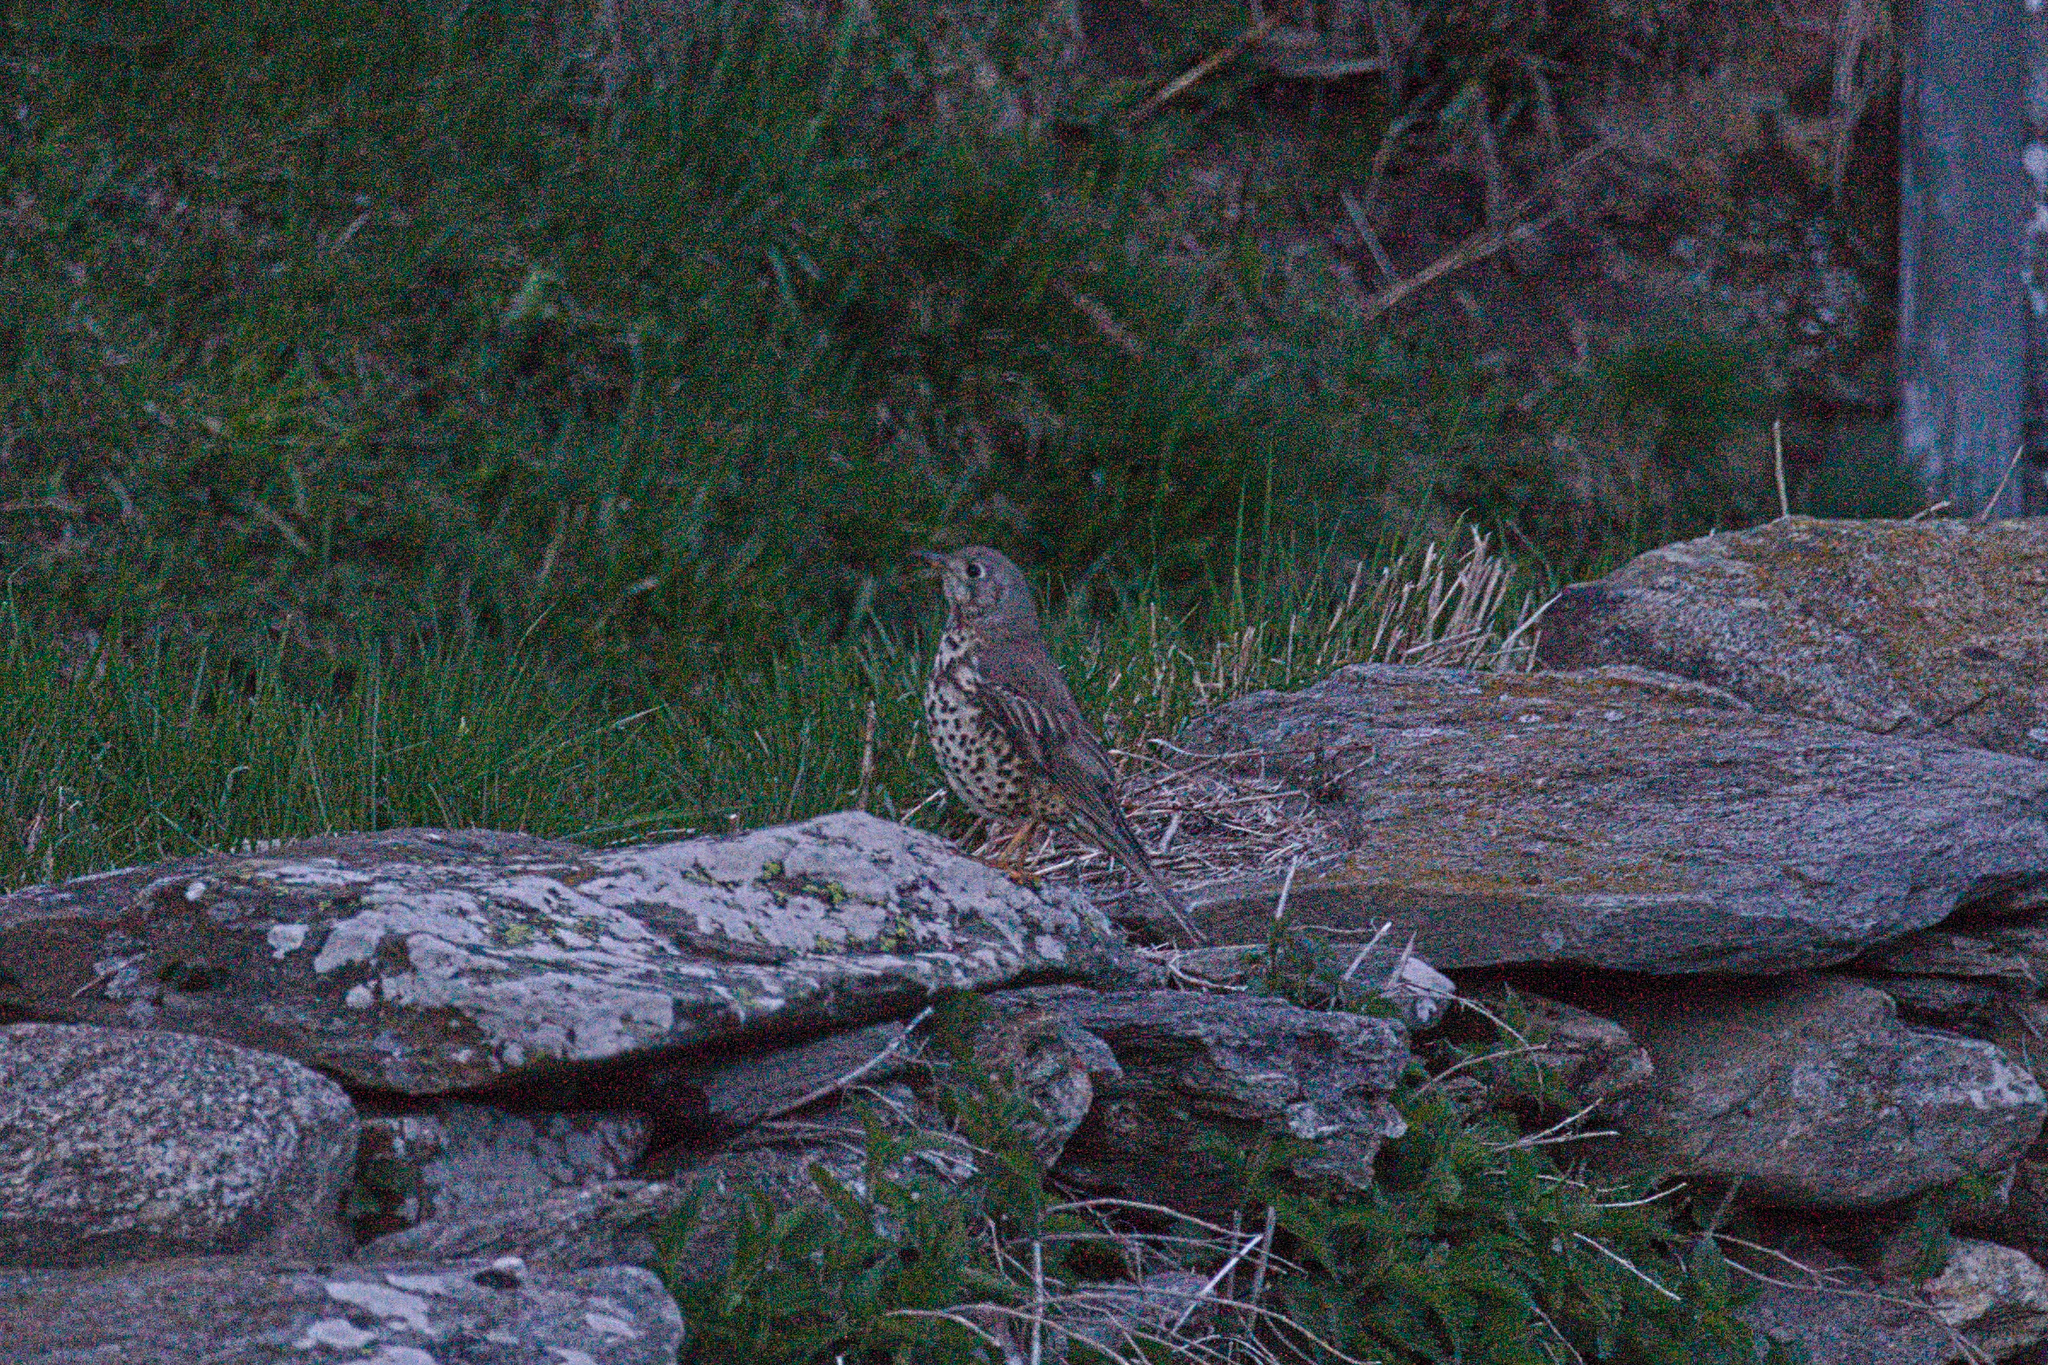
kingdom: Animalia
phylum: Chordata
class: Aves
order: Passeriformes
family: Turdidae
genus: Turdus
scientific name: Turdus philomelos
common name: Song thrush
